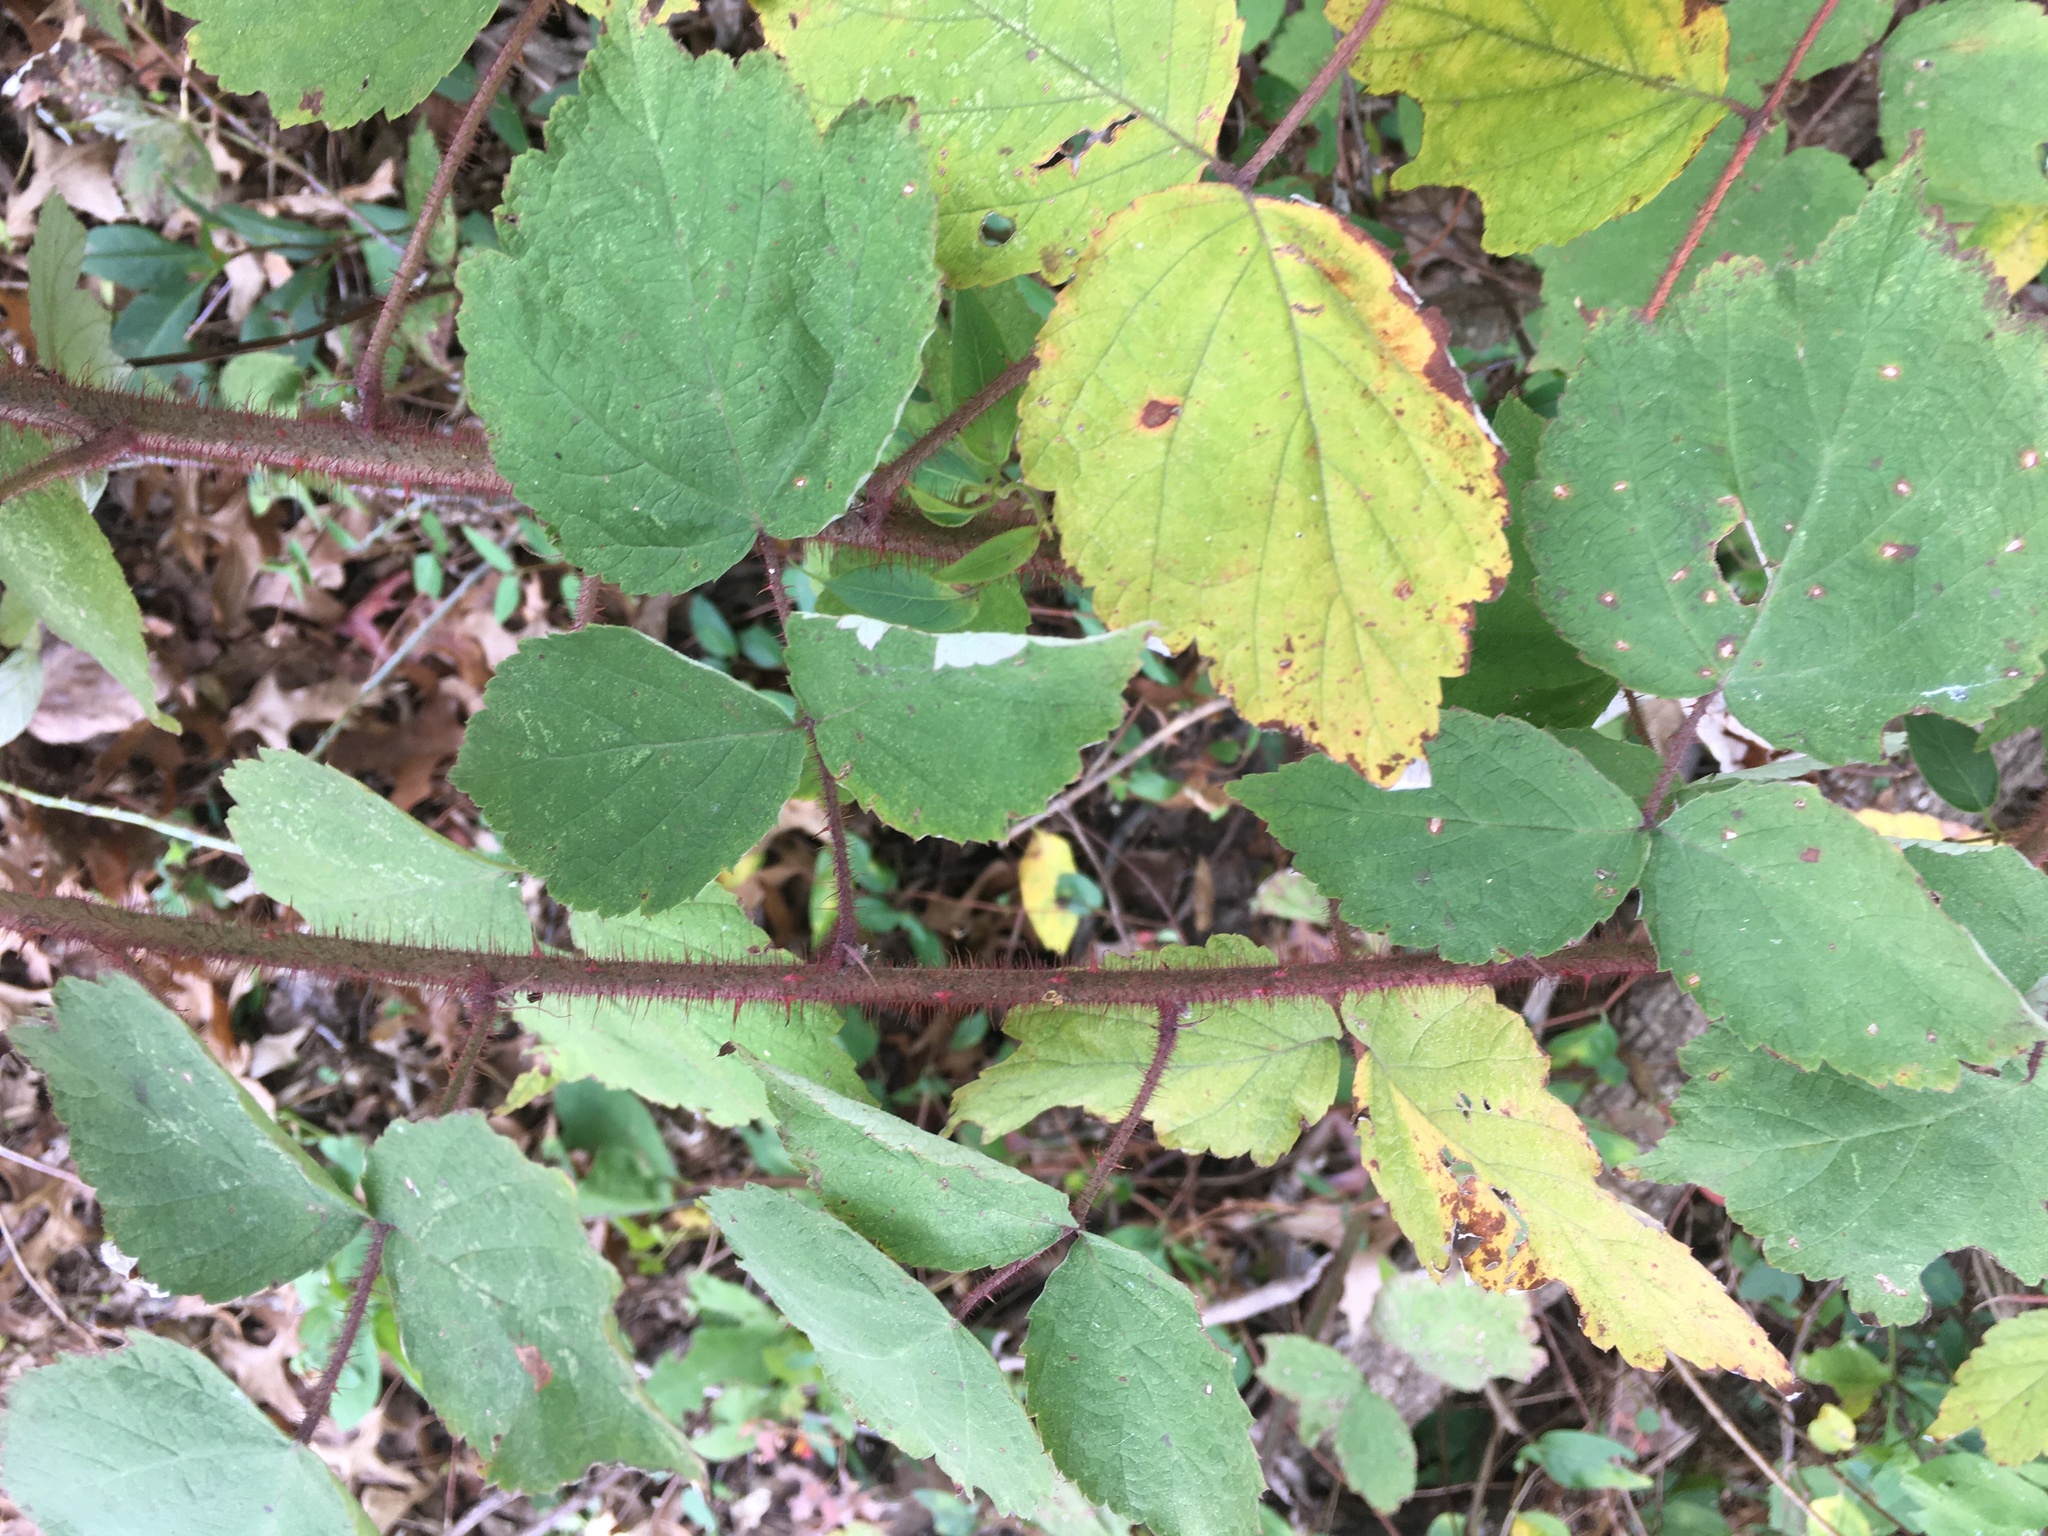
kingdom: Plantae
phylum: Tracheophyta
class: Magnoliopsida
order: Rosales
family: Rosaceae
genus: Rubus
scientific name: Rubus phoenicolasius
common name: Japanese wineberry
